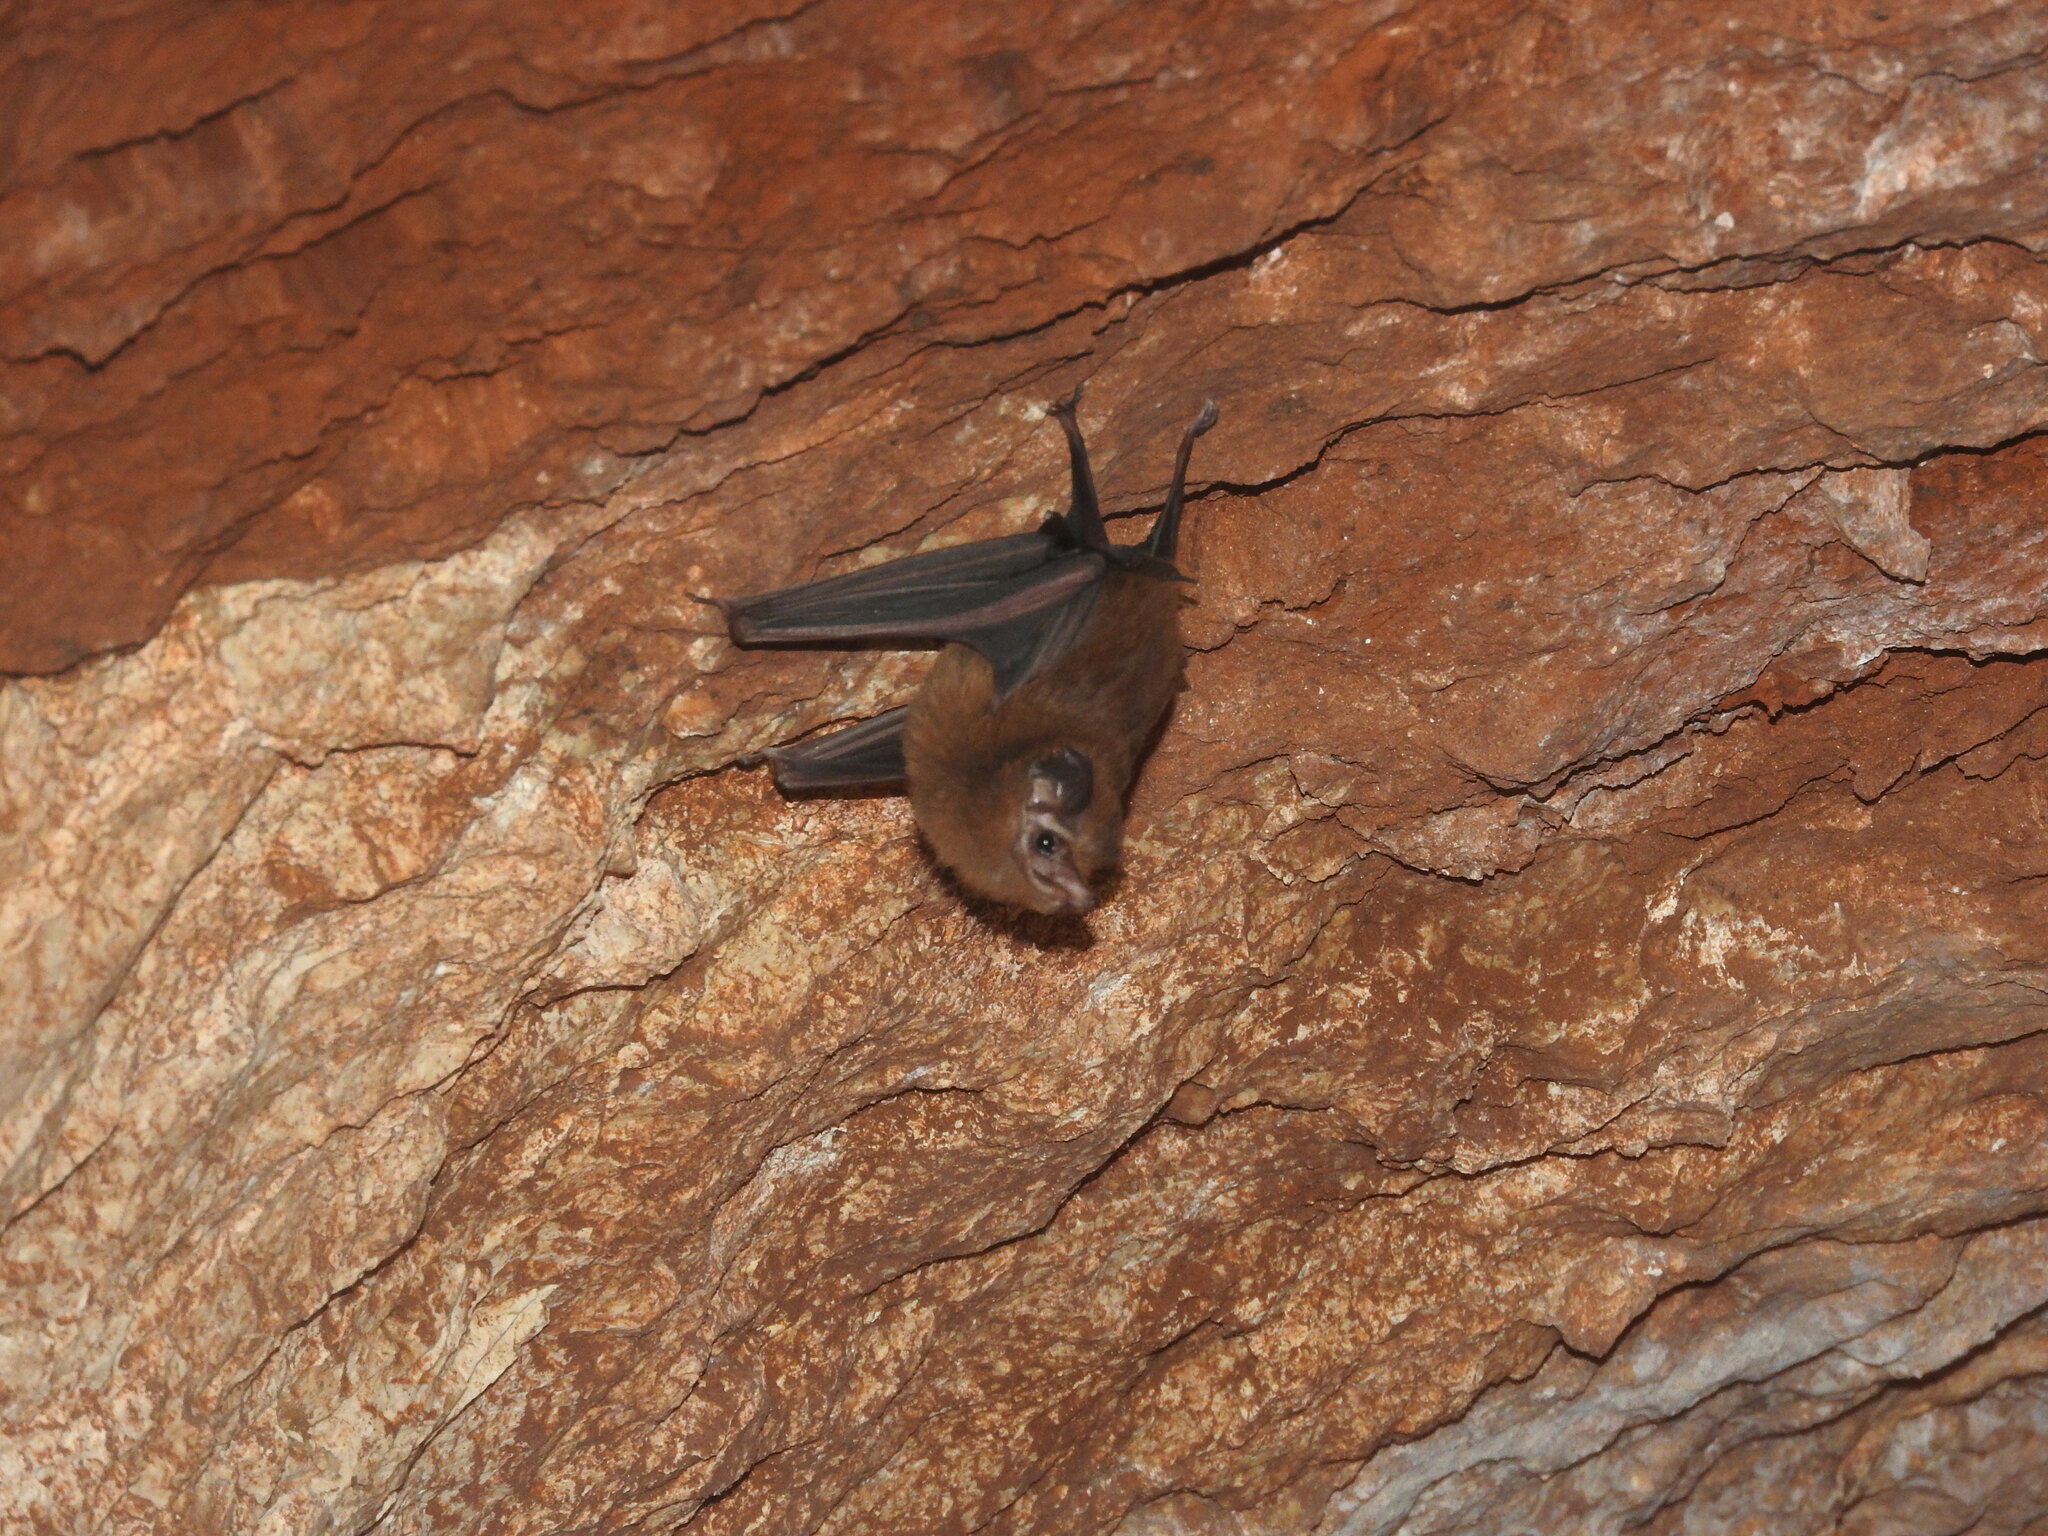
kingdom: Animalia
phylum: Chordata
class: Mammalia
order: Chiroptera
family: Emballonuridae
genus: Peropteryx
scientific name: Peropteryx macrotis
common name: Lesser dog-like bat
